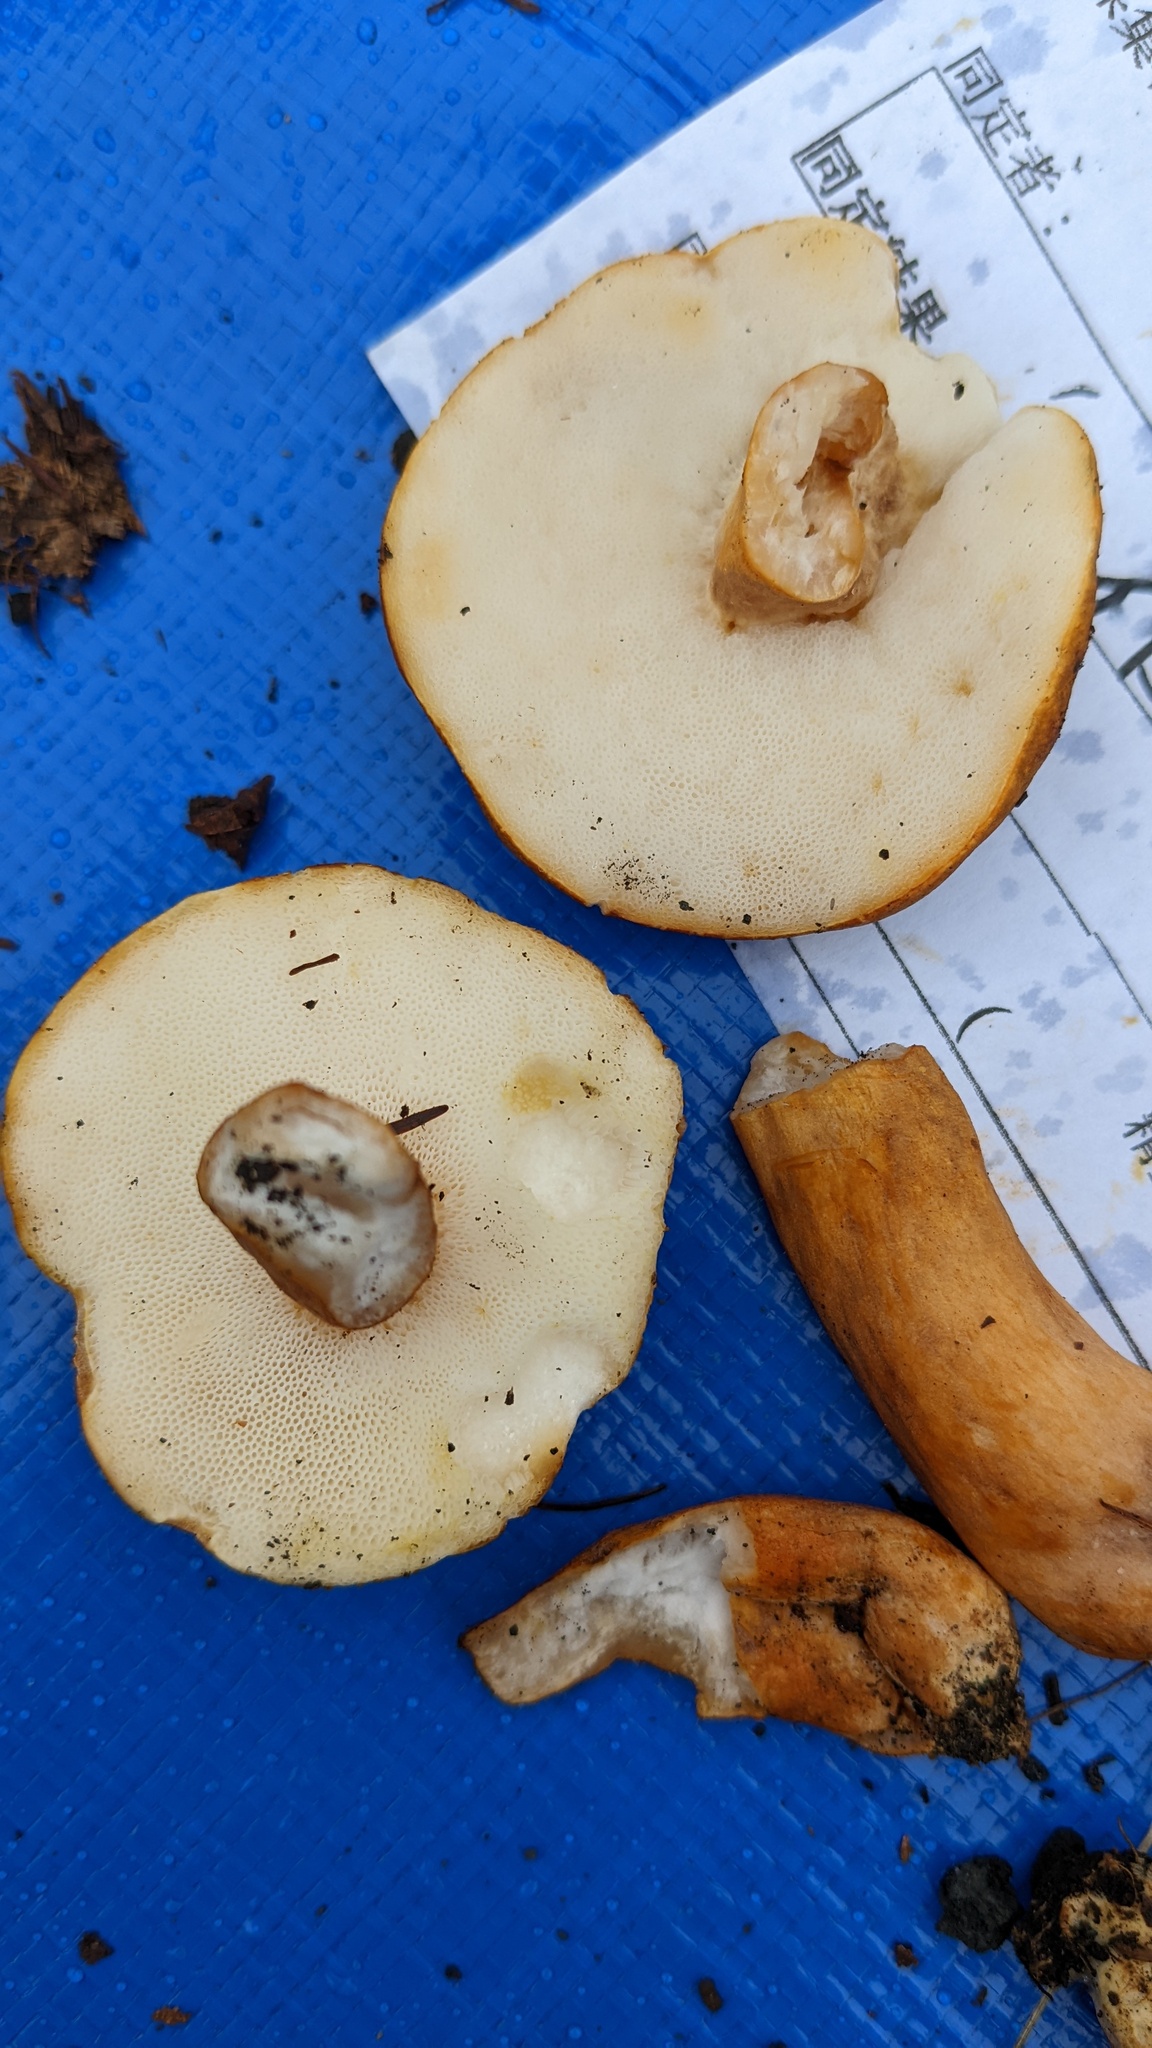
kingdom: Fungi
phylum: Basidiomycota
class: Agaricomycetes
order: Boletales
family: Gyroporaceae
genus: Gyroporus
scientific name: Gyroporus castaneus
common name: Chestnut bolete
